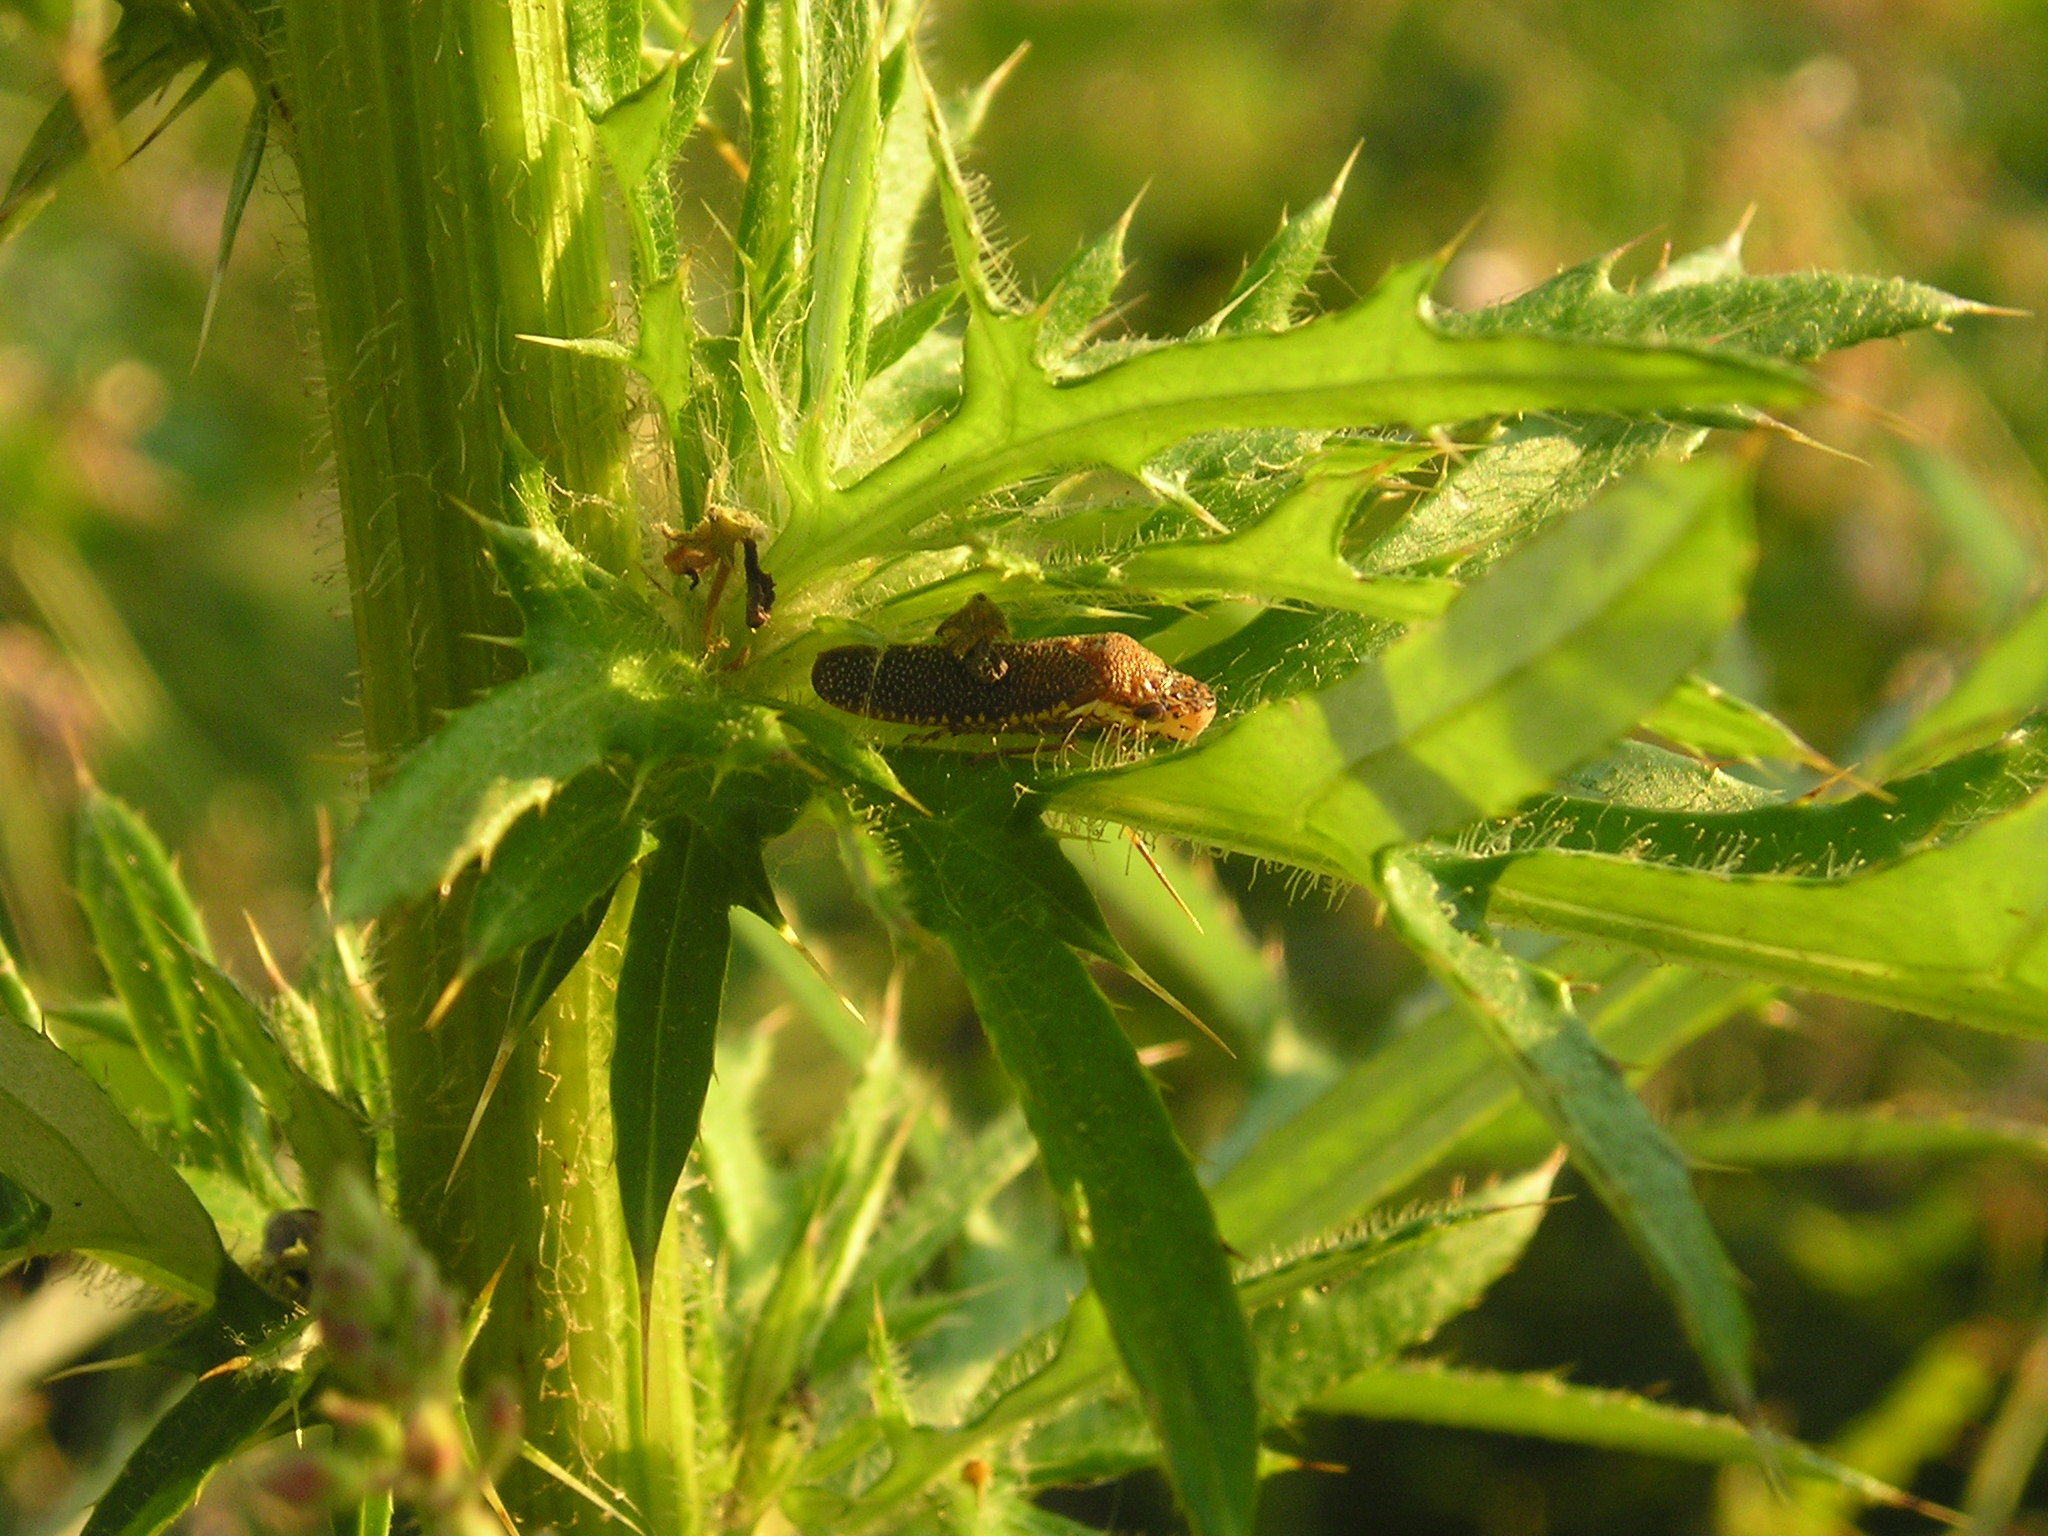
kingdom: Animalia
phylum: Arthropoda
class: Insecta
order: Hemiptera
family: Cicadellidae
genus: Paraulacizes
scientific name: Paraulacizes irrorata
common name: Speckled sharpshooter
